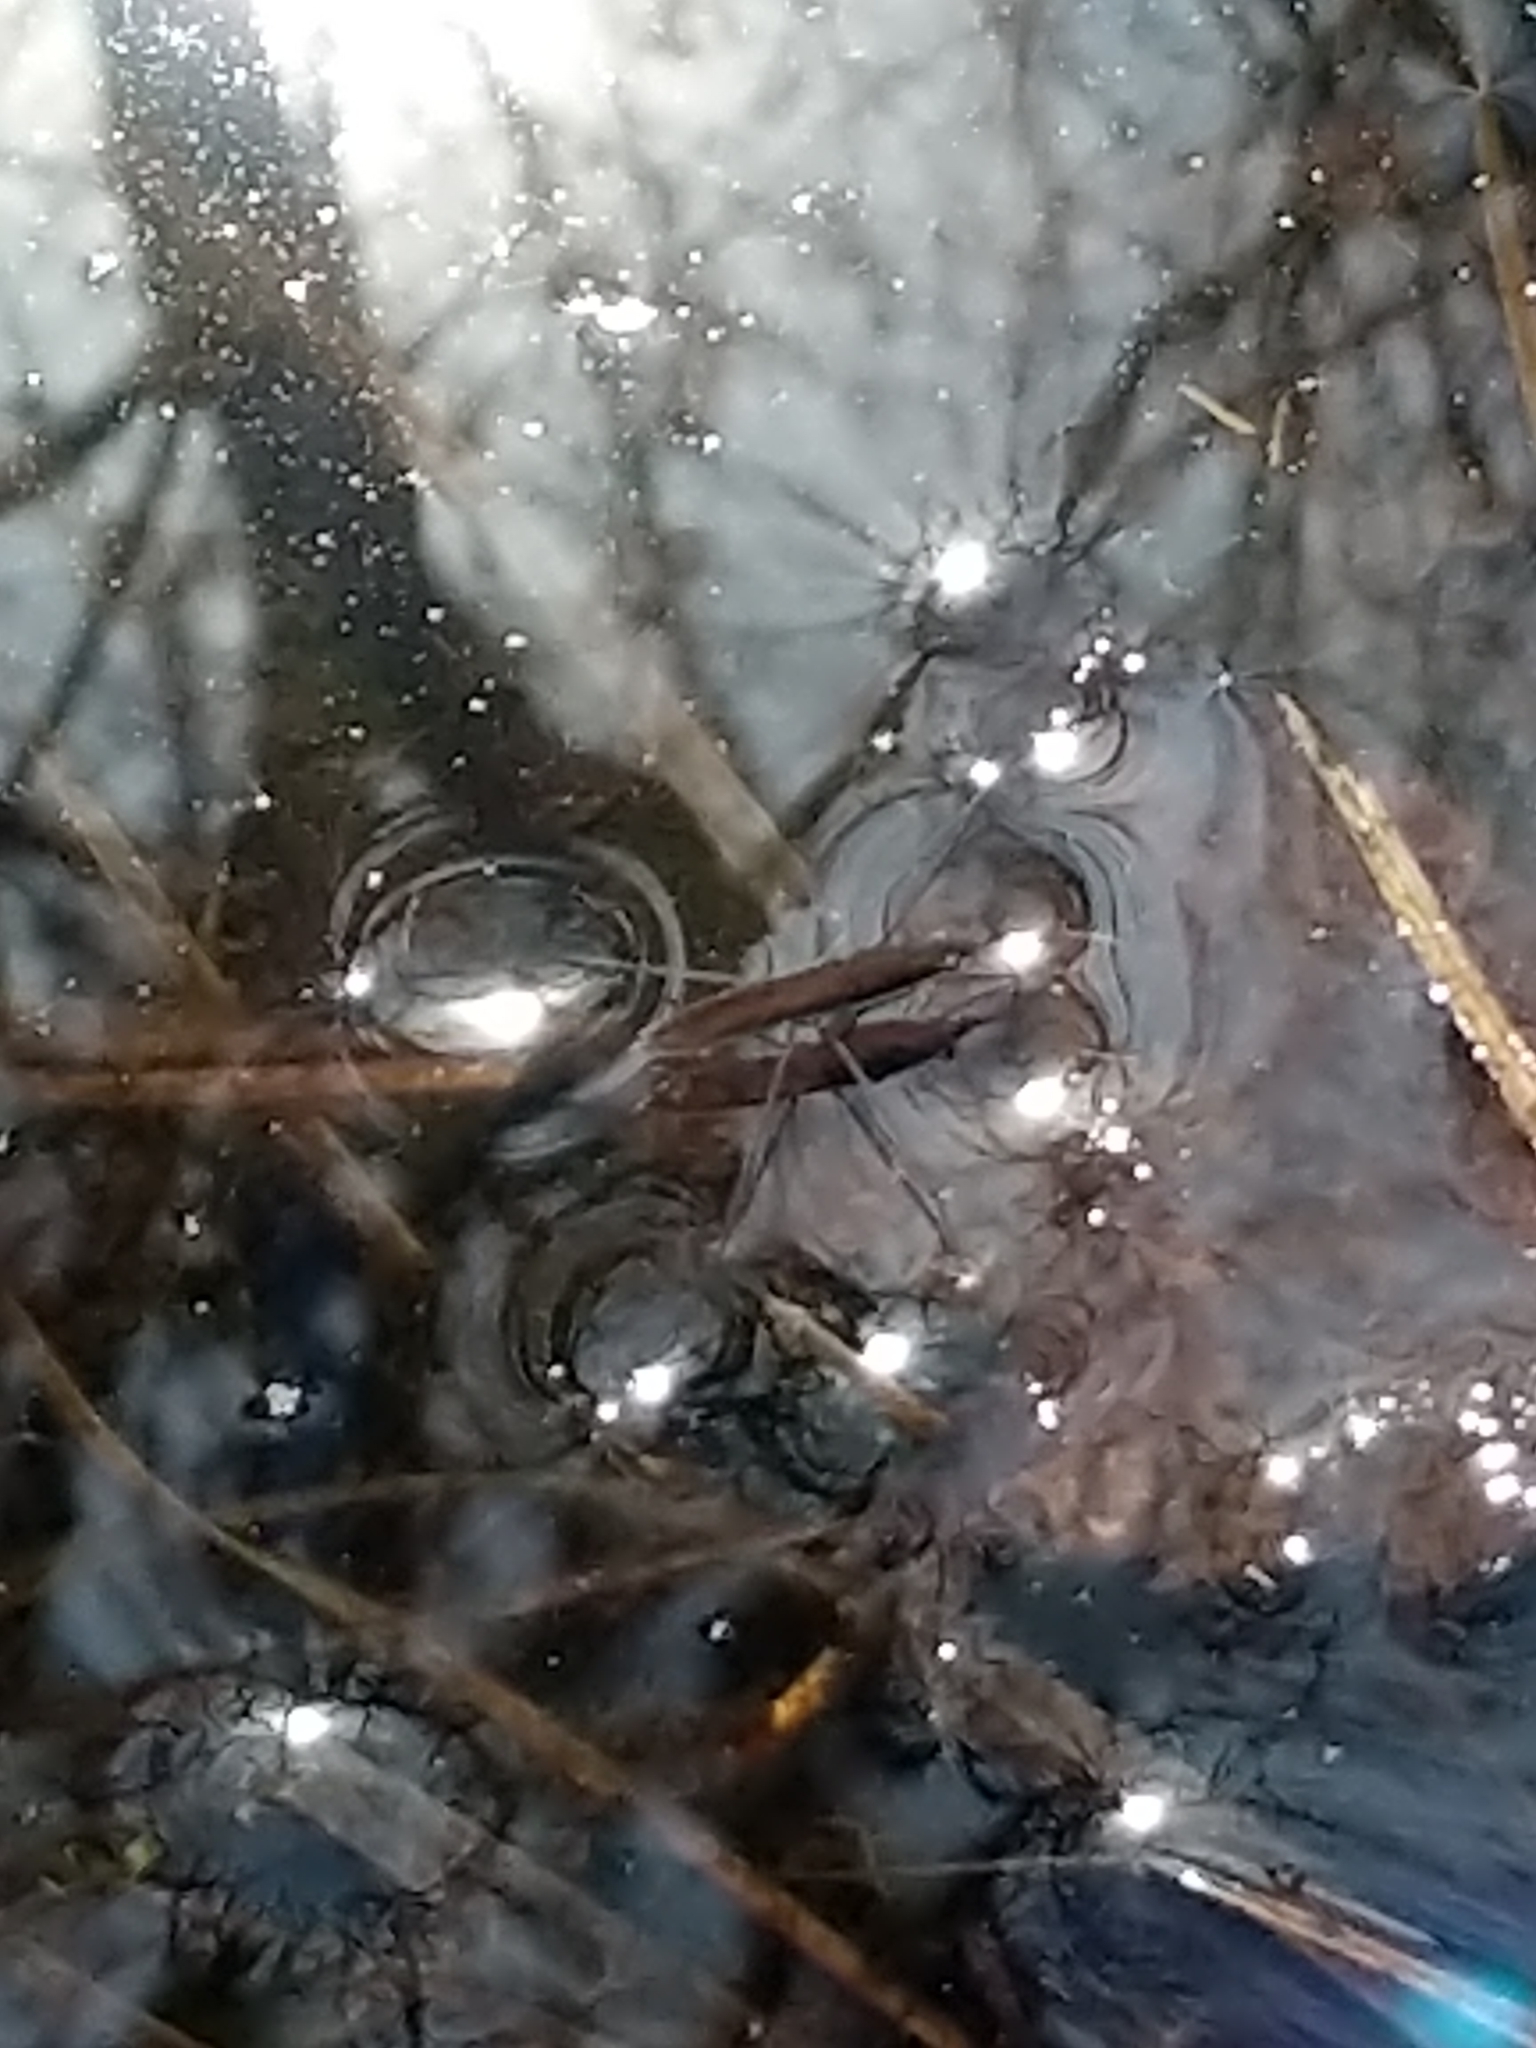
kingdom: Animalia
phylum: Arthropoda
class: Insecta
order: Hemiptera
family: Gerridae
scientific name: Gerridae
